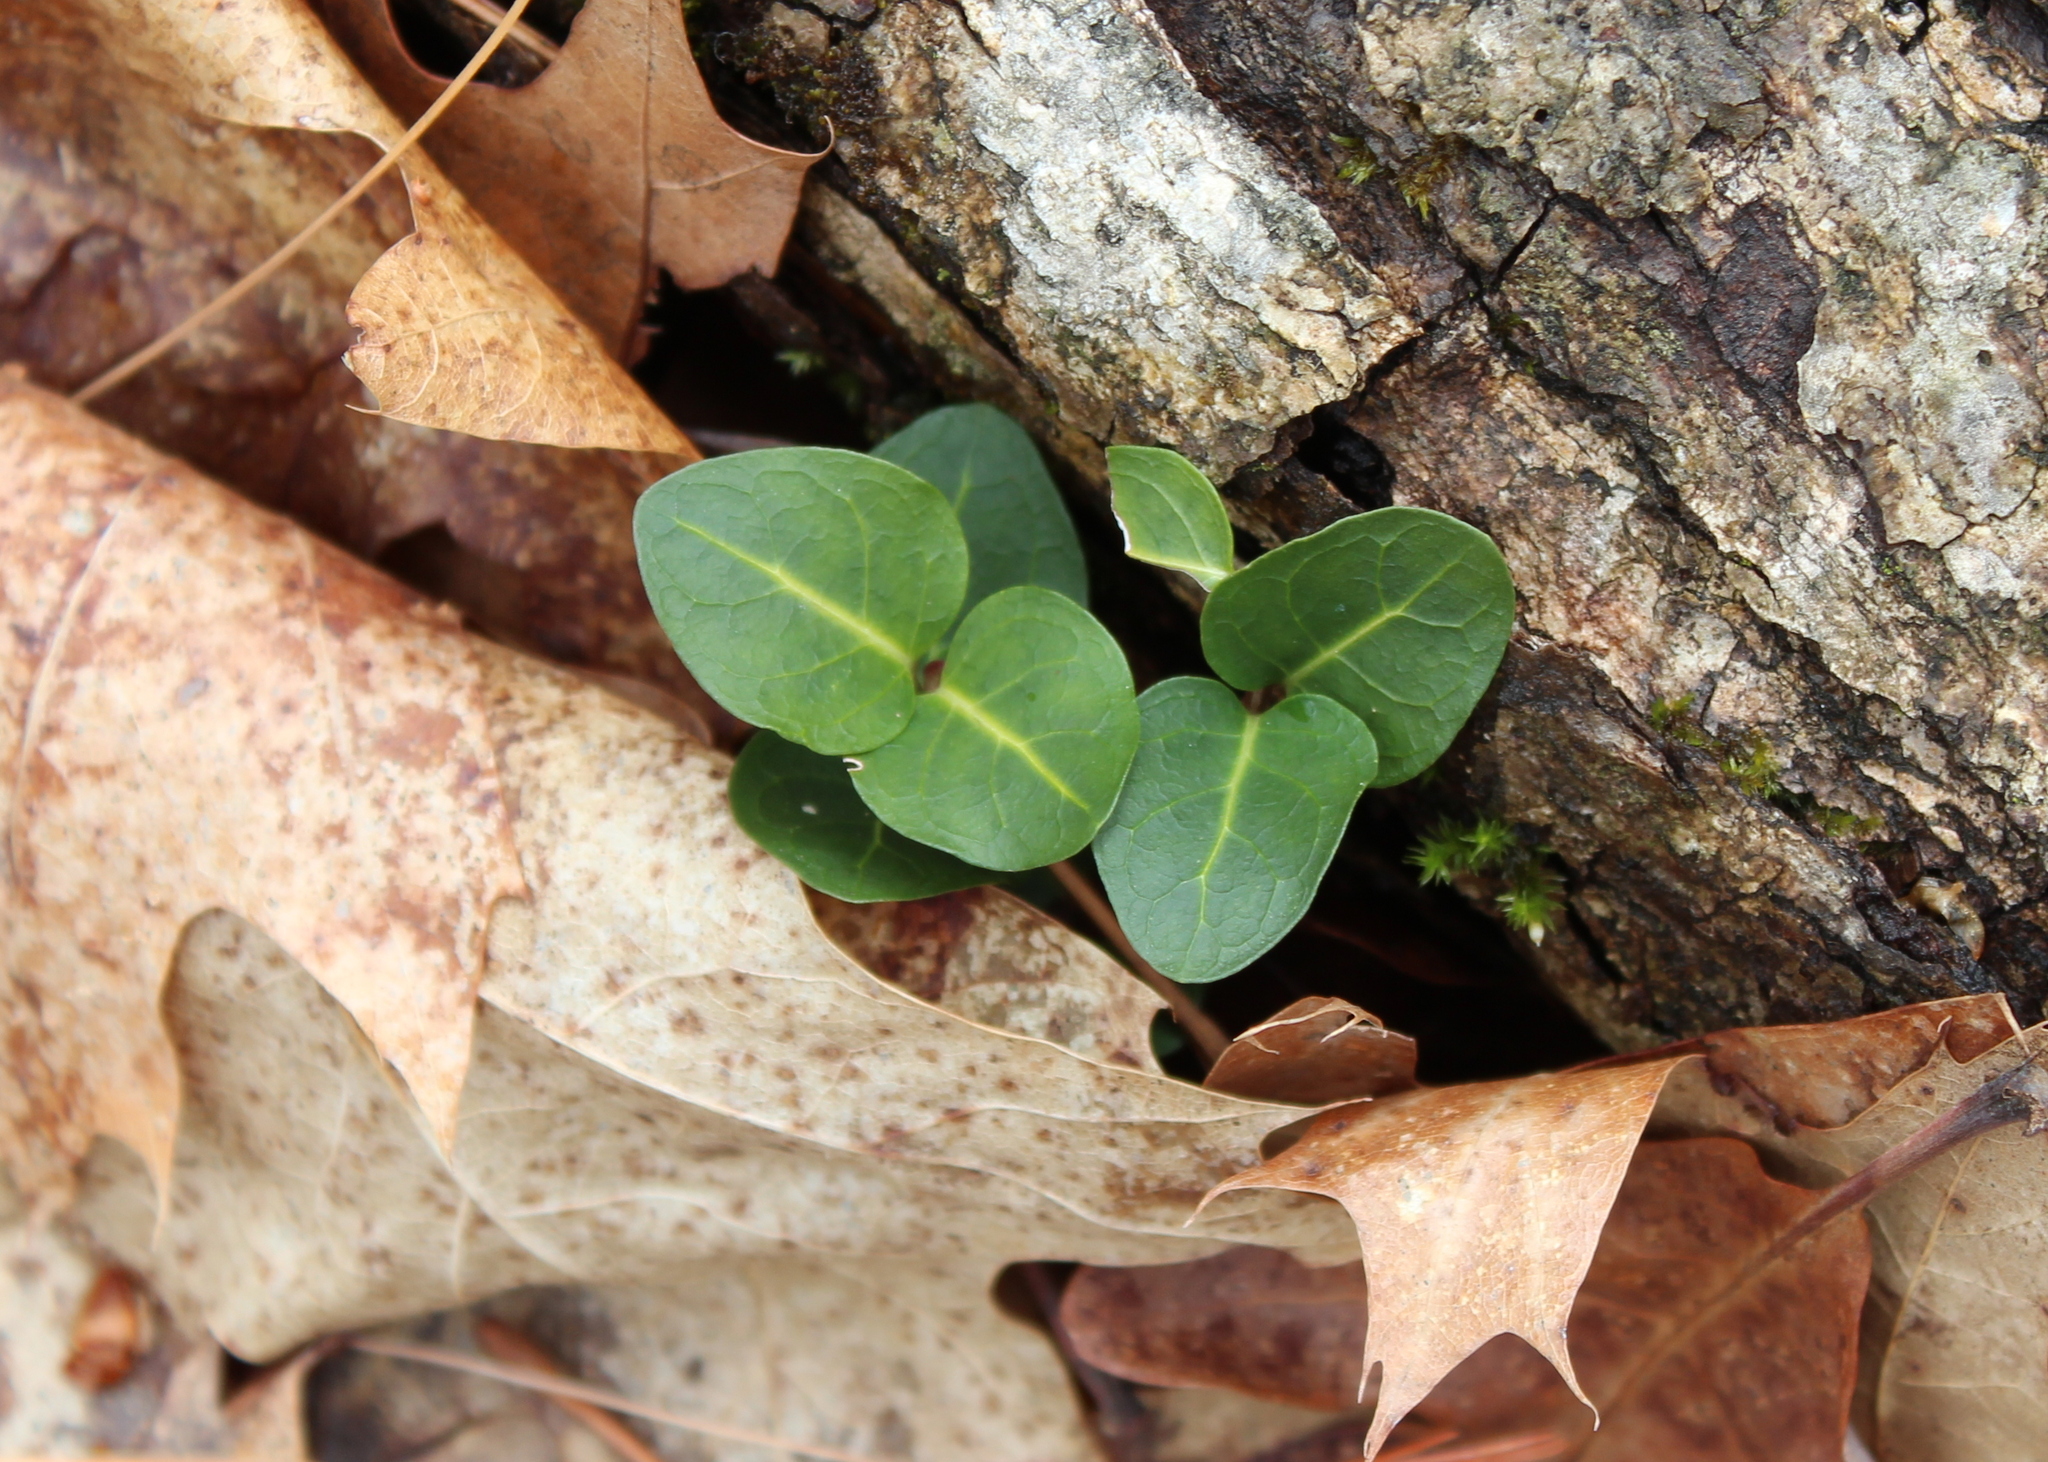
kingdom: Plantae
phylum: Tracheophyta
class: Magnoliopsida
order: Gentianales
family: Rubiaceae
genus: Mitchella
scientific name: Mitchella repens
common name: Partridge-berry
